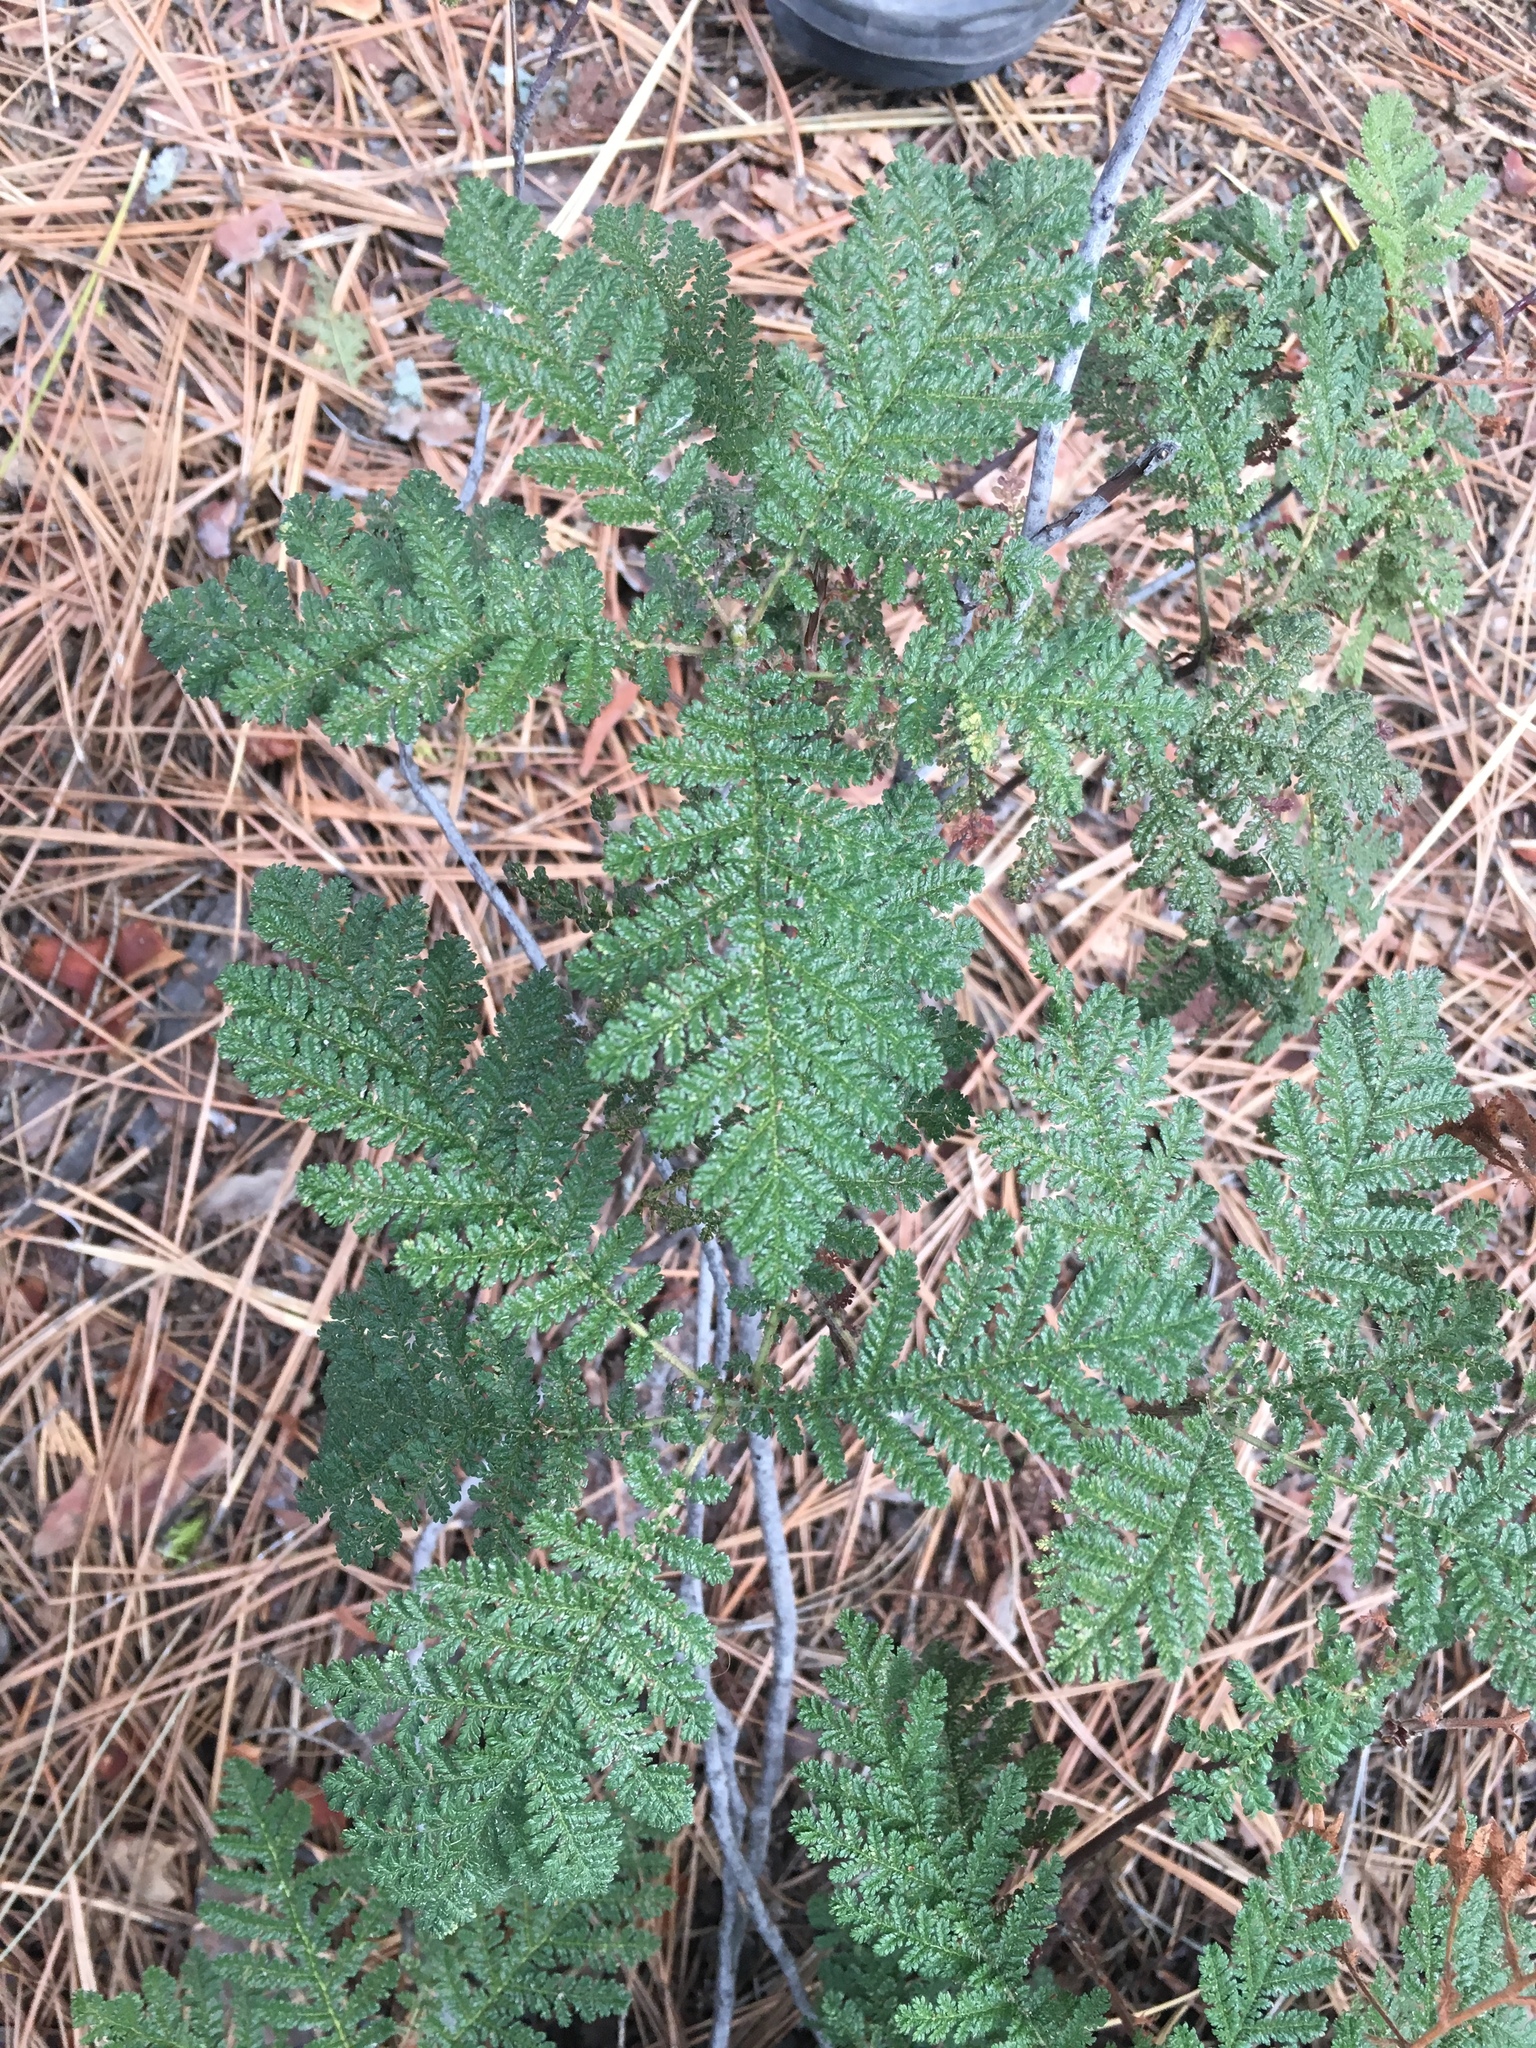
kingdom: Plantae
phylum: Tracheophyta
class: Magnoliopsida
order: Rosales
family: Rosaceae
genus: Chamaebatia
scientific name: Chamaebatia foliolosa
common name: Mountain misery
